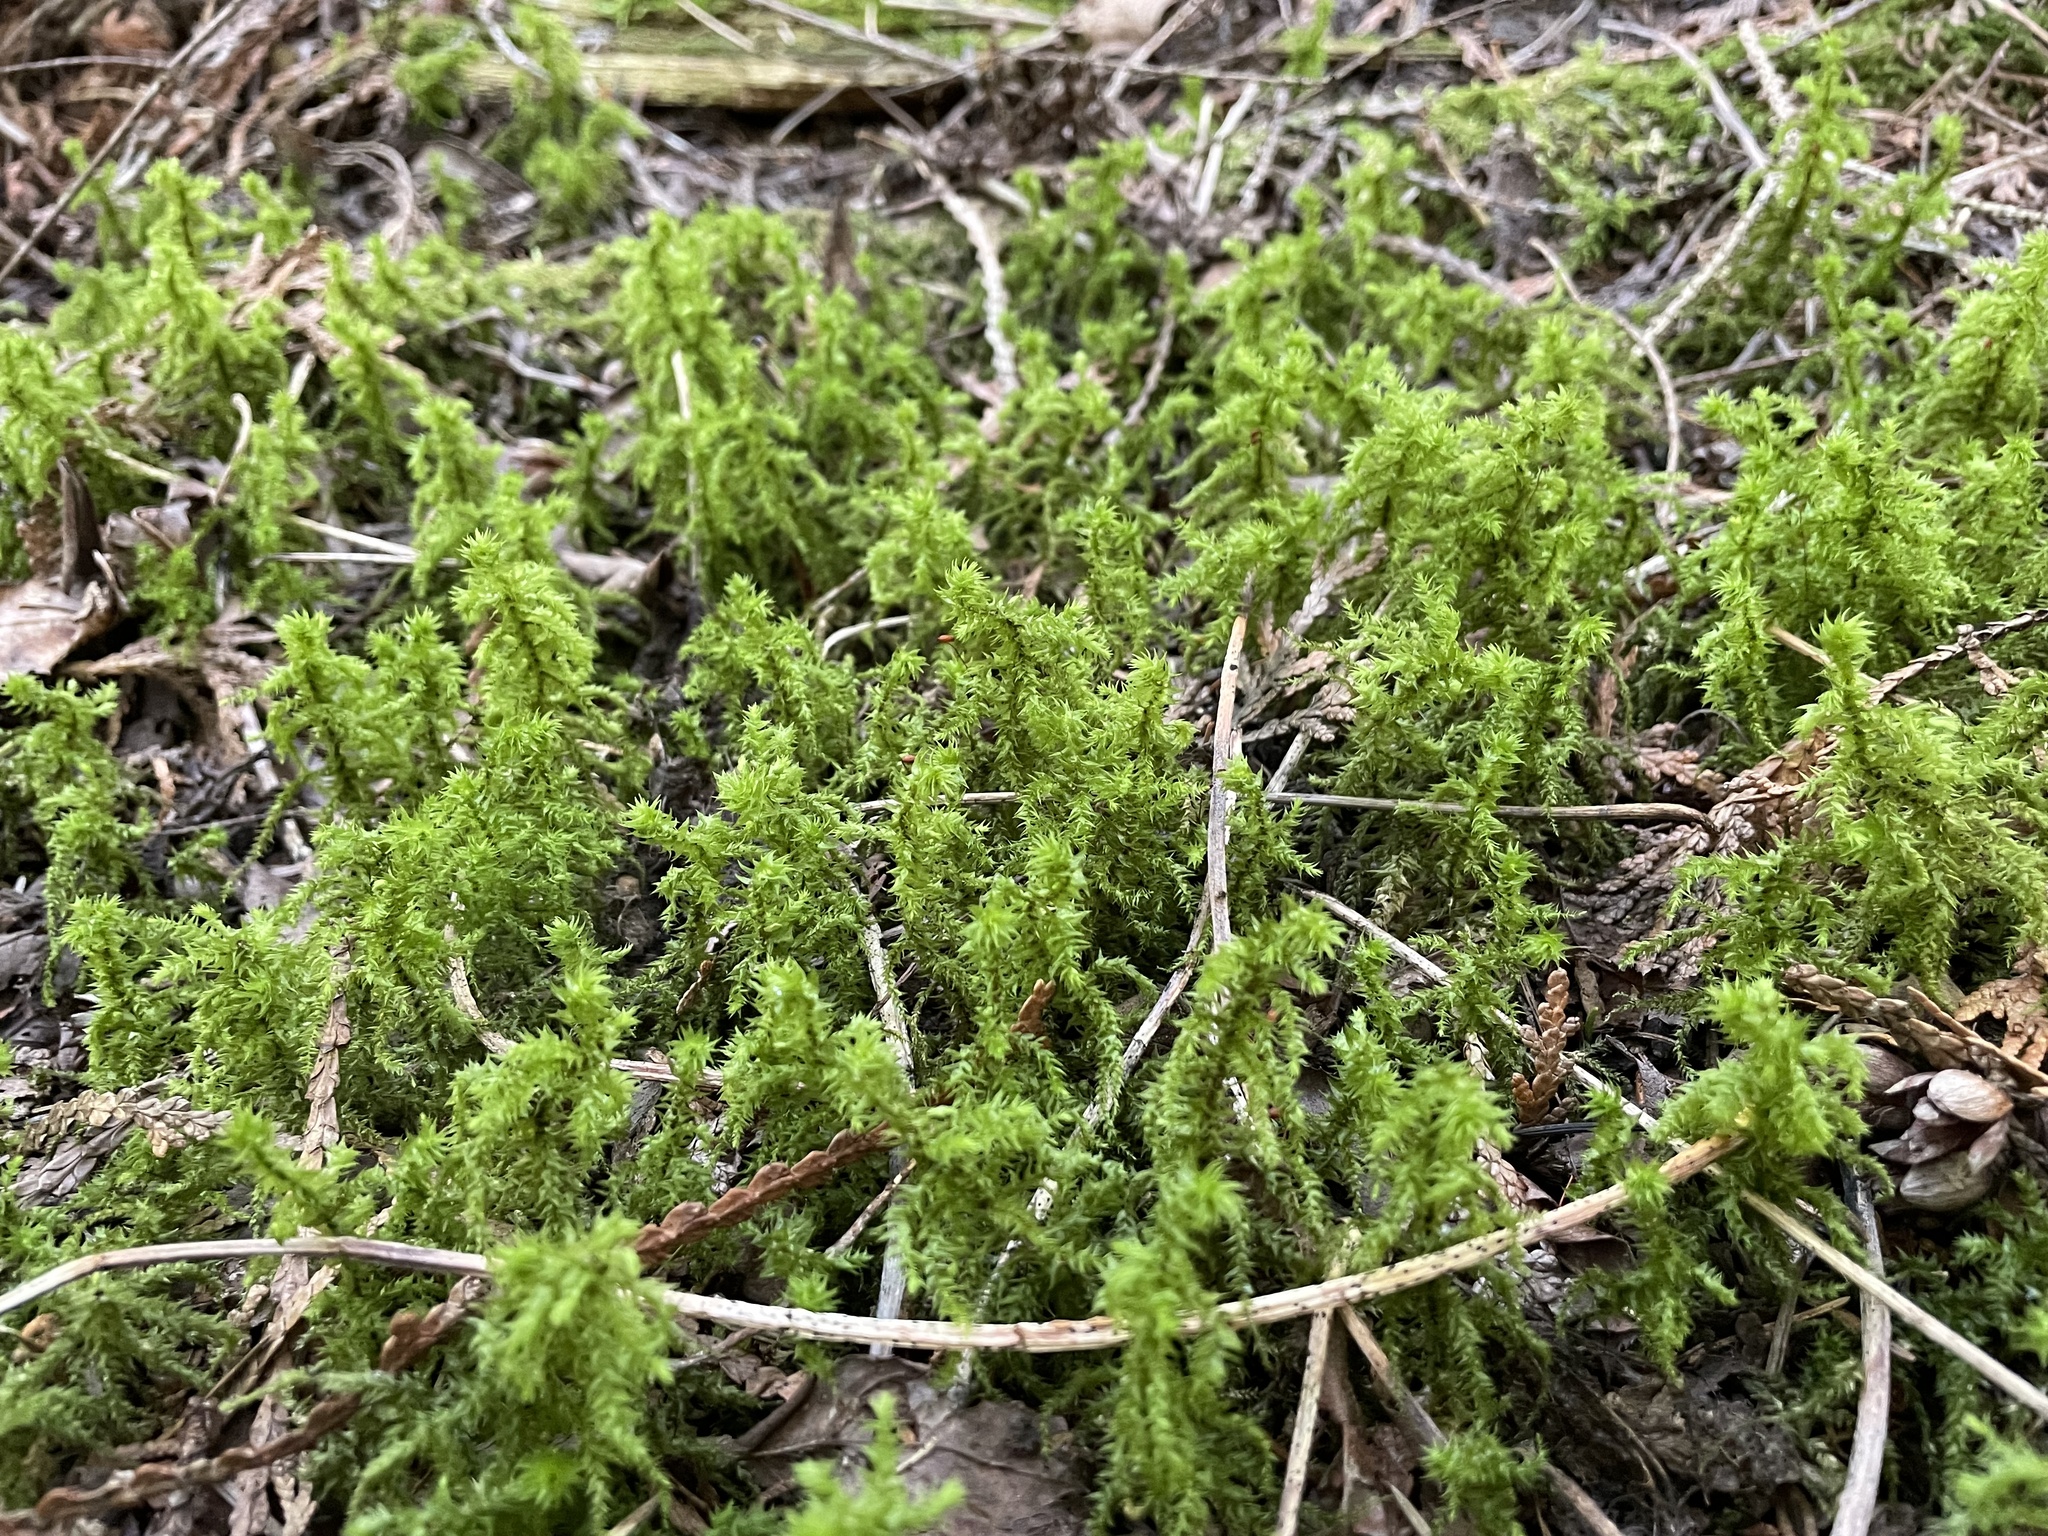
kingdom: Plantae
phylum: Bryophyta
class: Bryopsida
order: Hypnales
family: Hylocomiaceae
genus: Hylocomiadelphus
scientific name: Hylocomiadelphus triquetrus
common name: Rough goose neck moss
